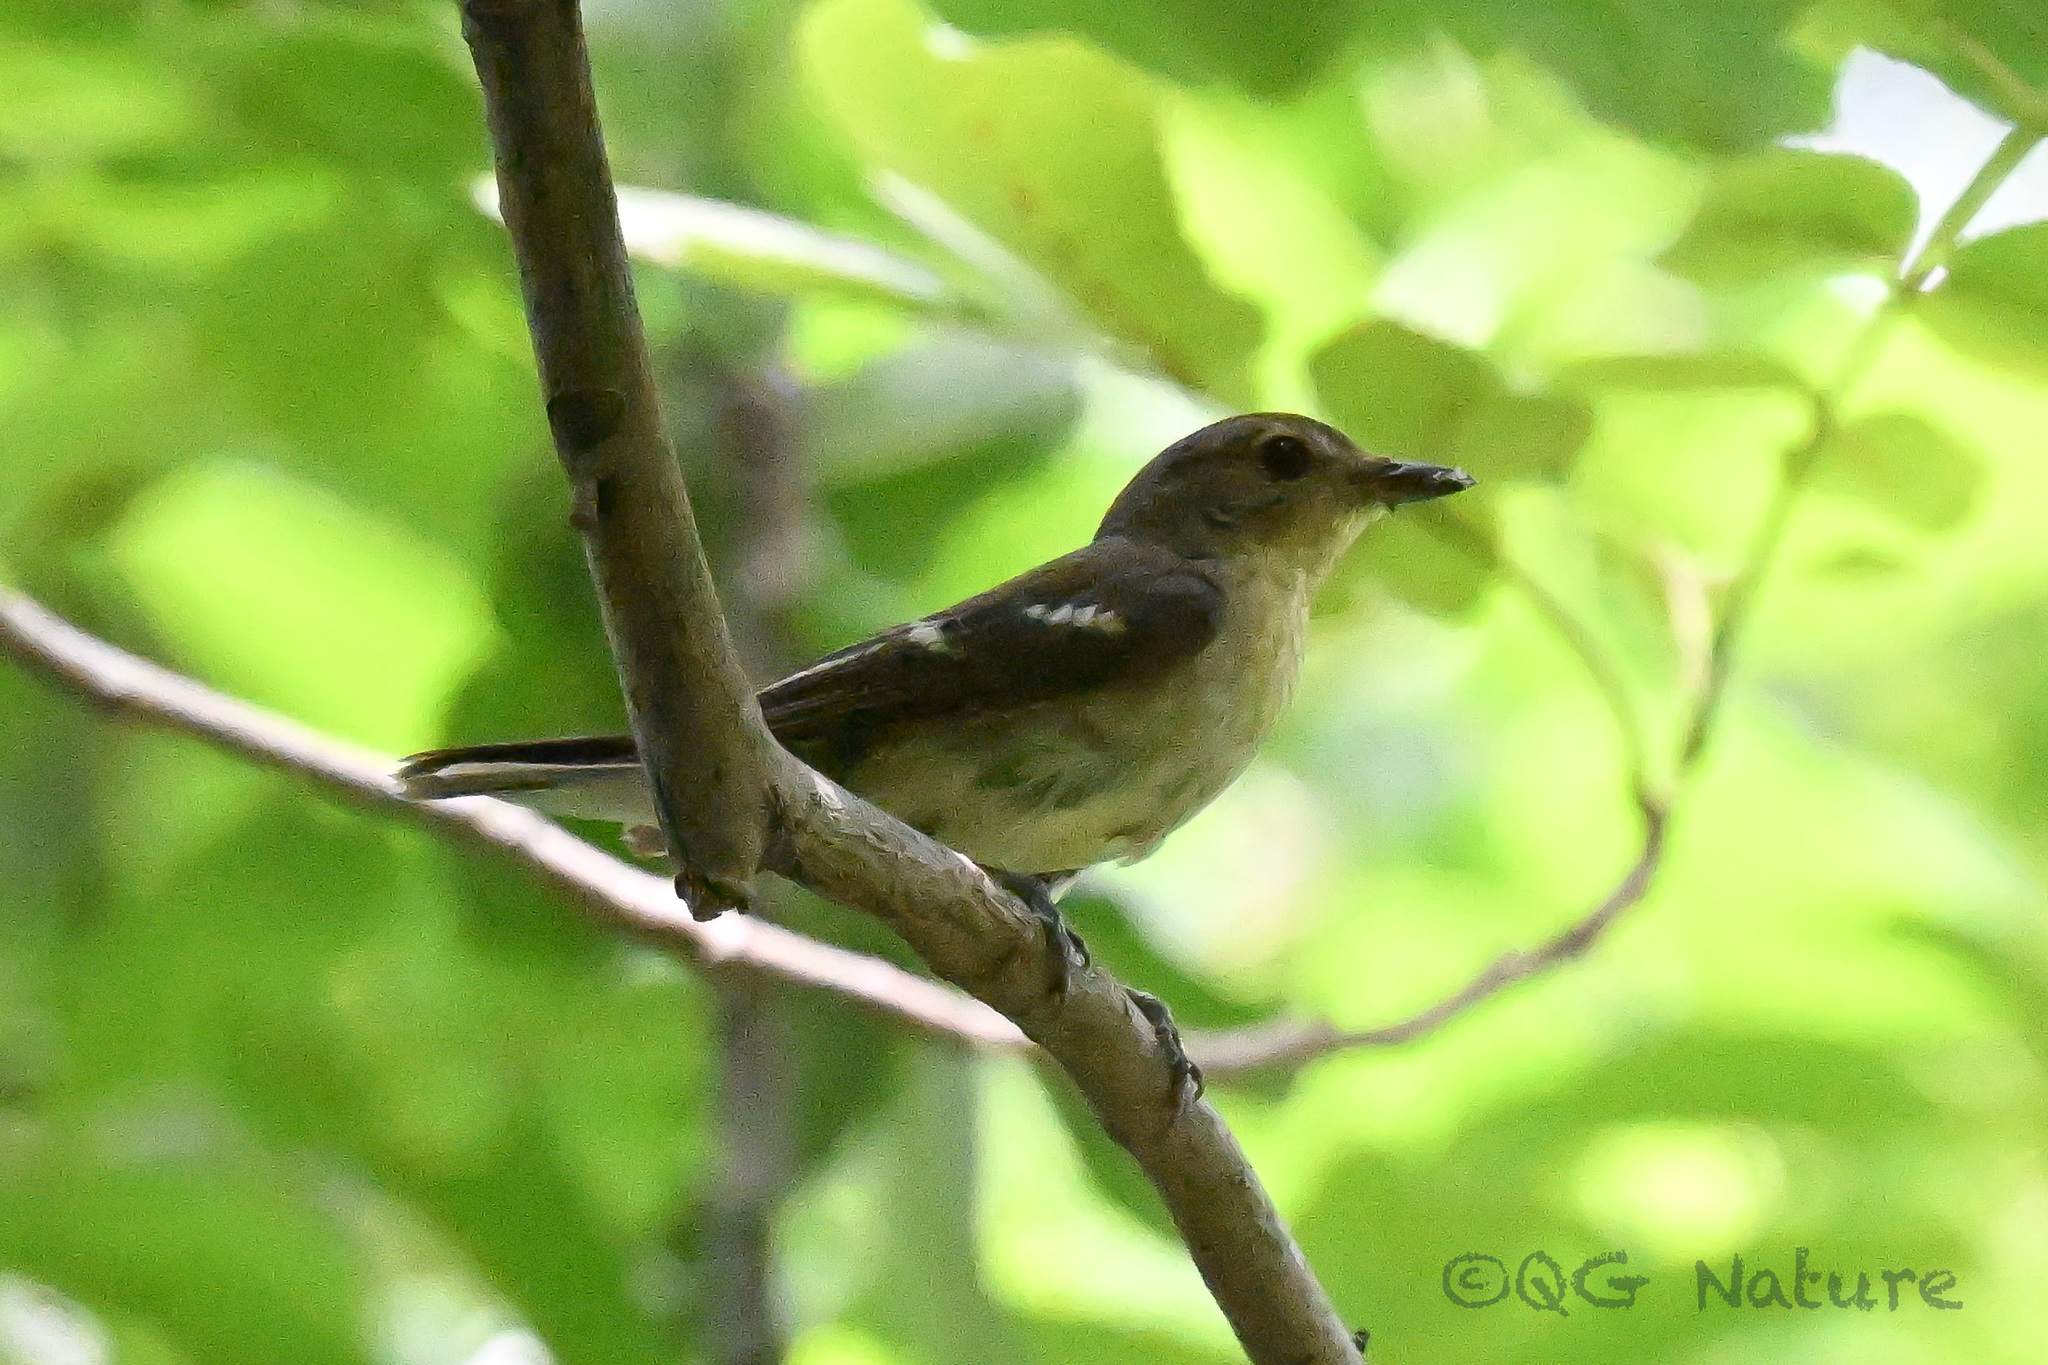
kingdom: Animalia
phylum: Chordata
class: Aves
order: Passeriformes
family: Muscicapidae
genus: Ficedula
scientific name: Ficedula zanthopygia
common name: Yellow-rumped flycatcher
